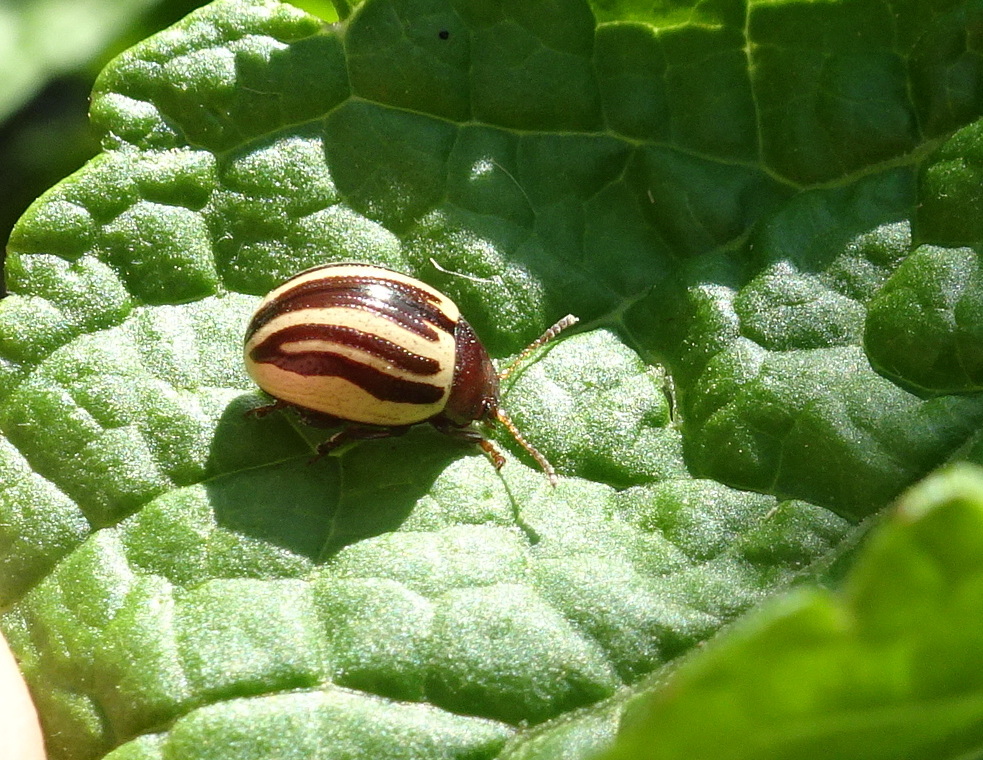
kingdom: Animalia
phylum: Arthropoda
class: Insecta
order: Coleoptera
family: Chrysomelidae
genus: Calligrapha
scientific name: Calligrapha
